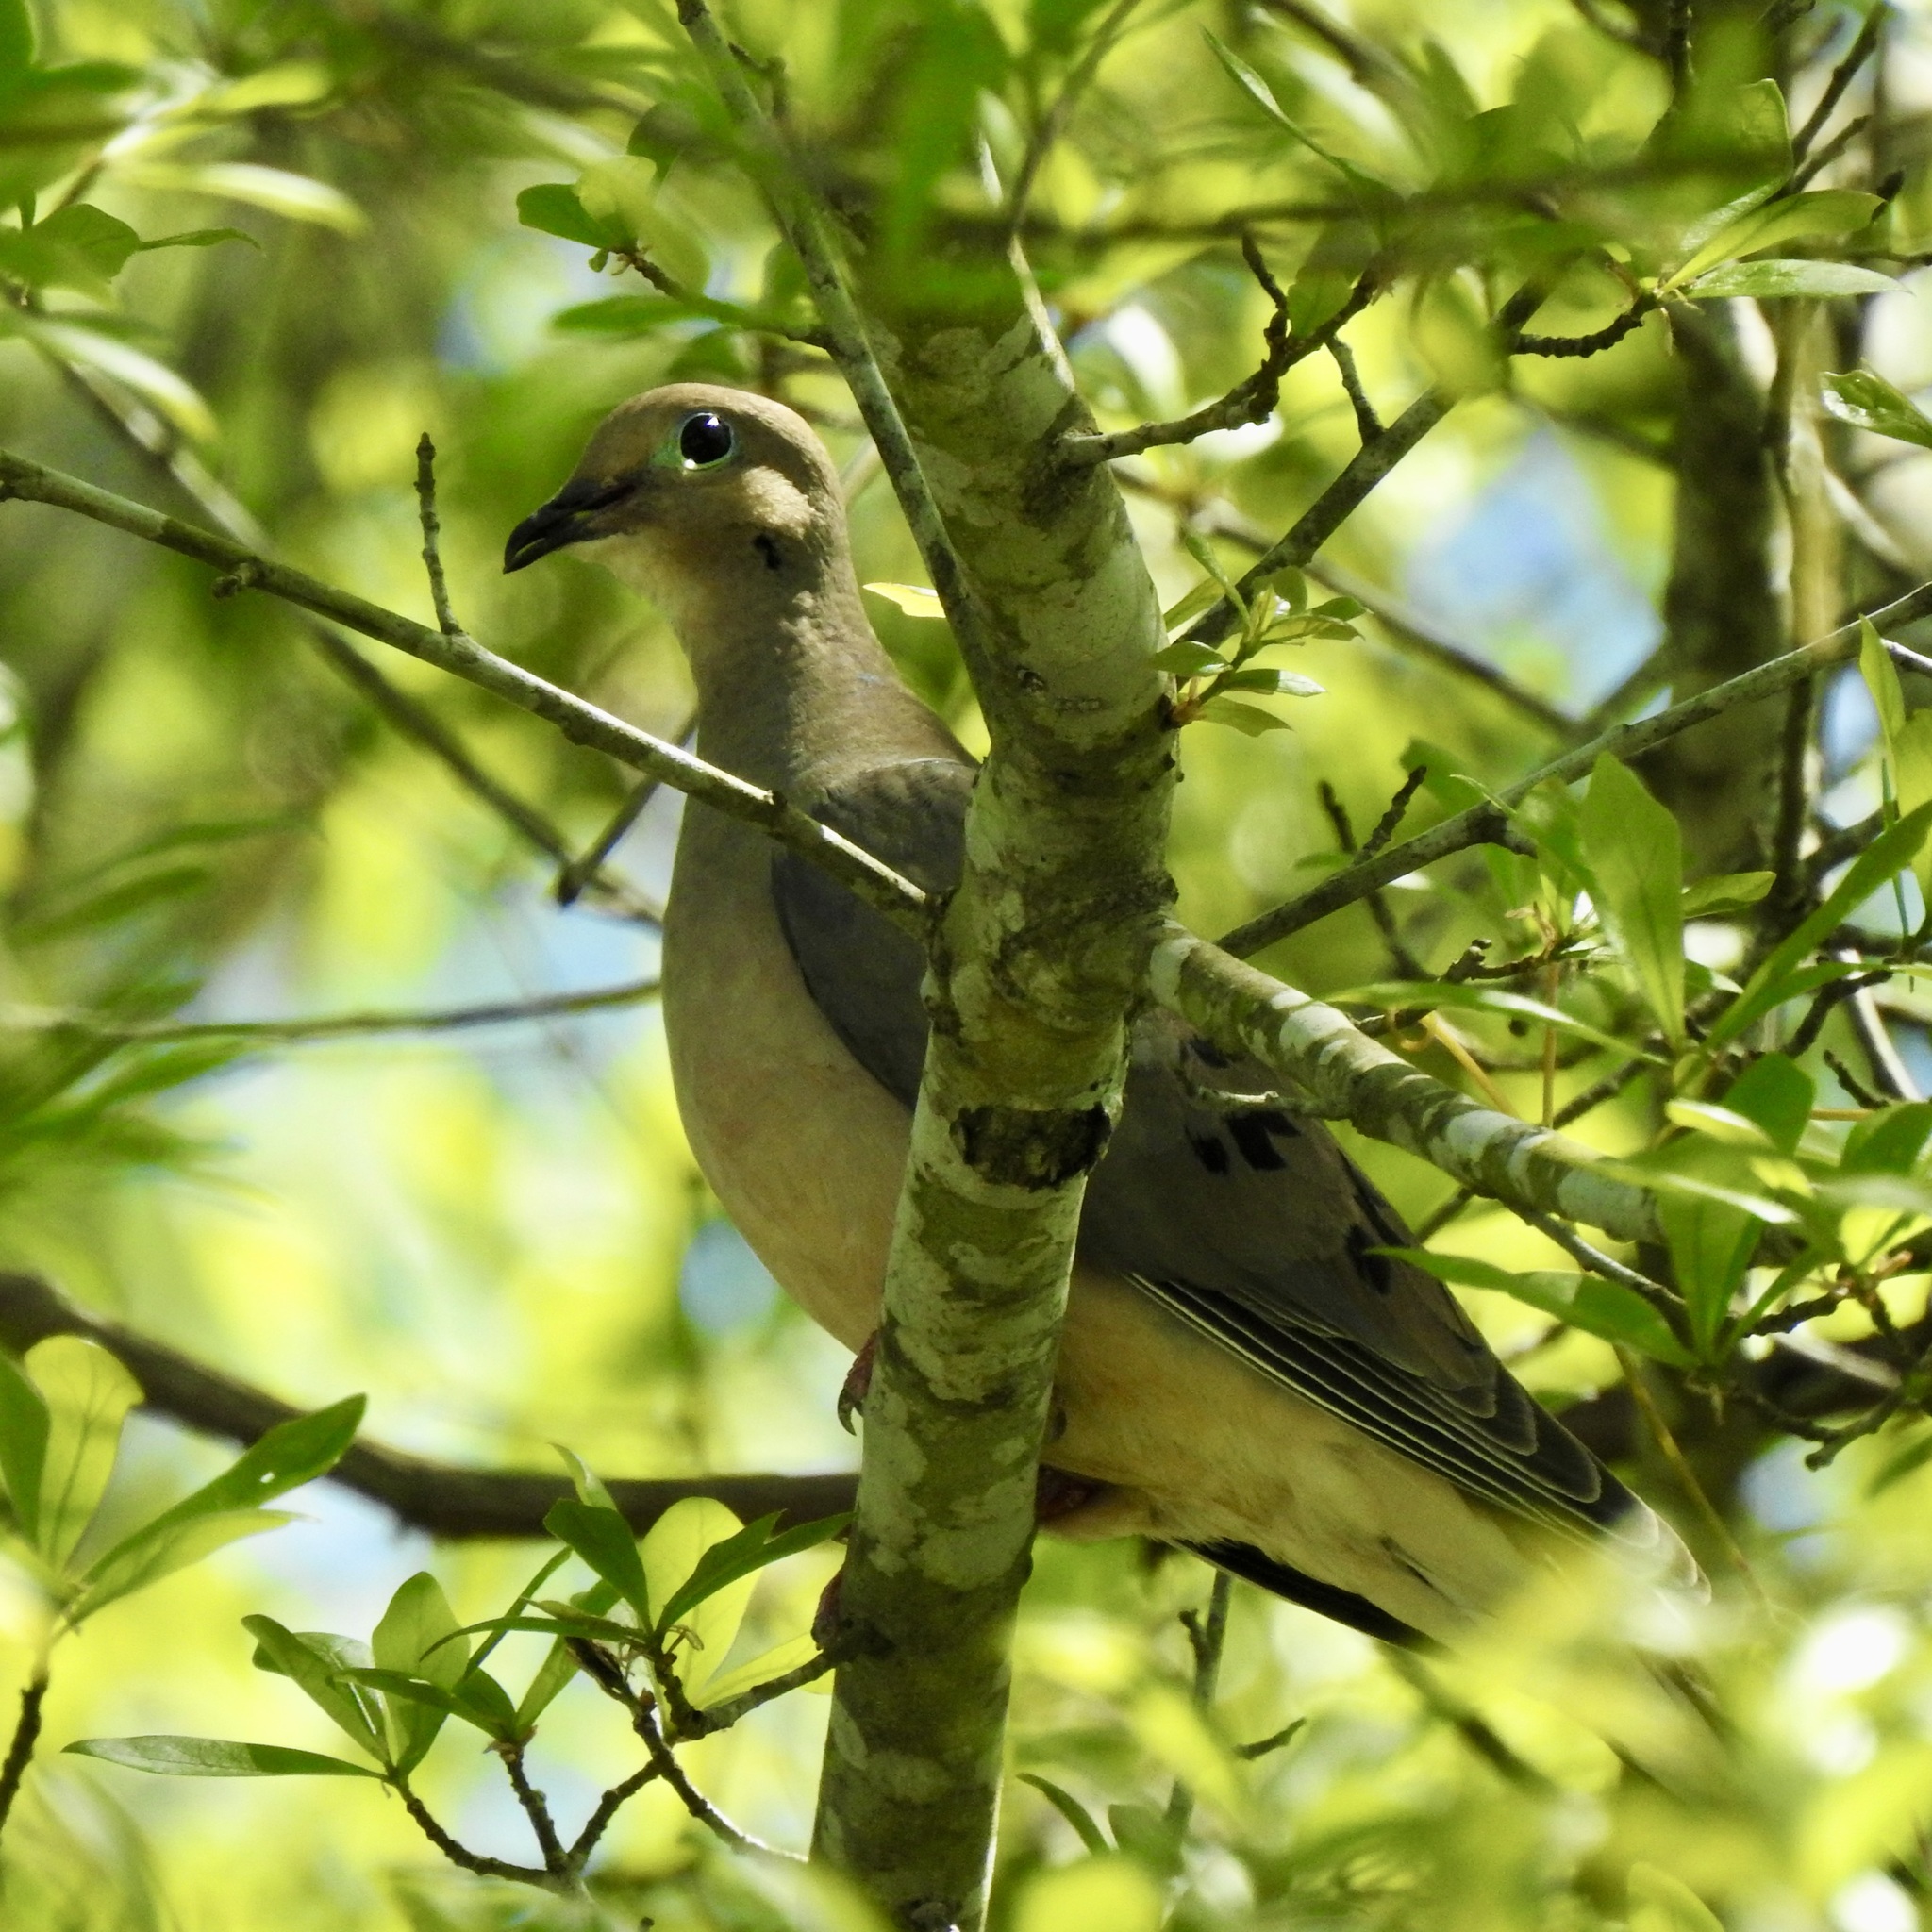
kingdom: Animalia
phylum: Chordata
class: Aves
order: Columbiformes
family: Columbidae
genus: Zenaida
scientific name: Zenaida macroura
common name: Mourning dove
